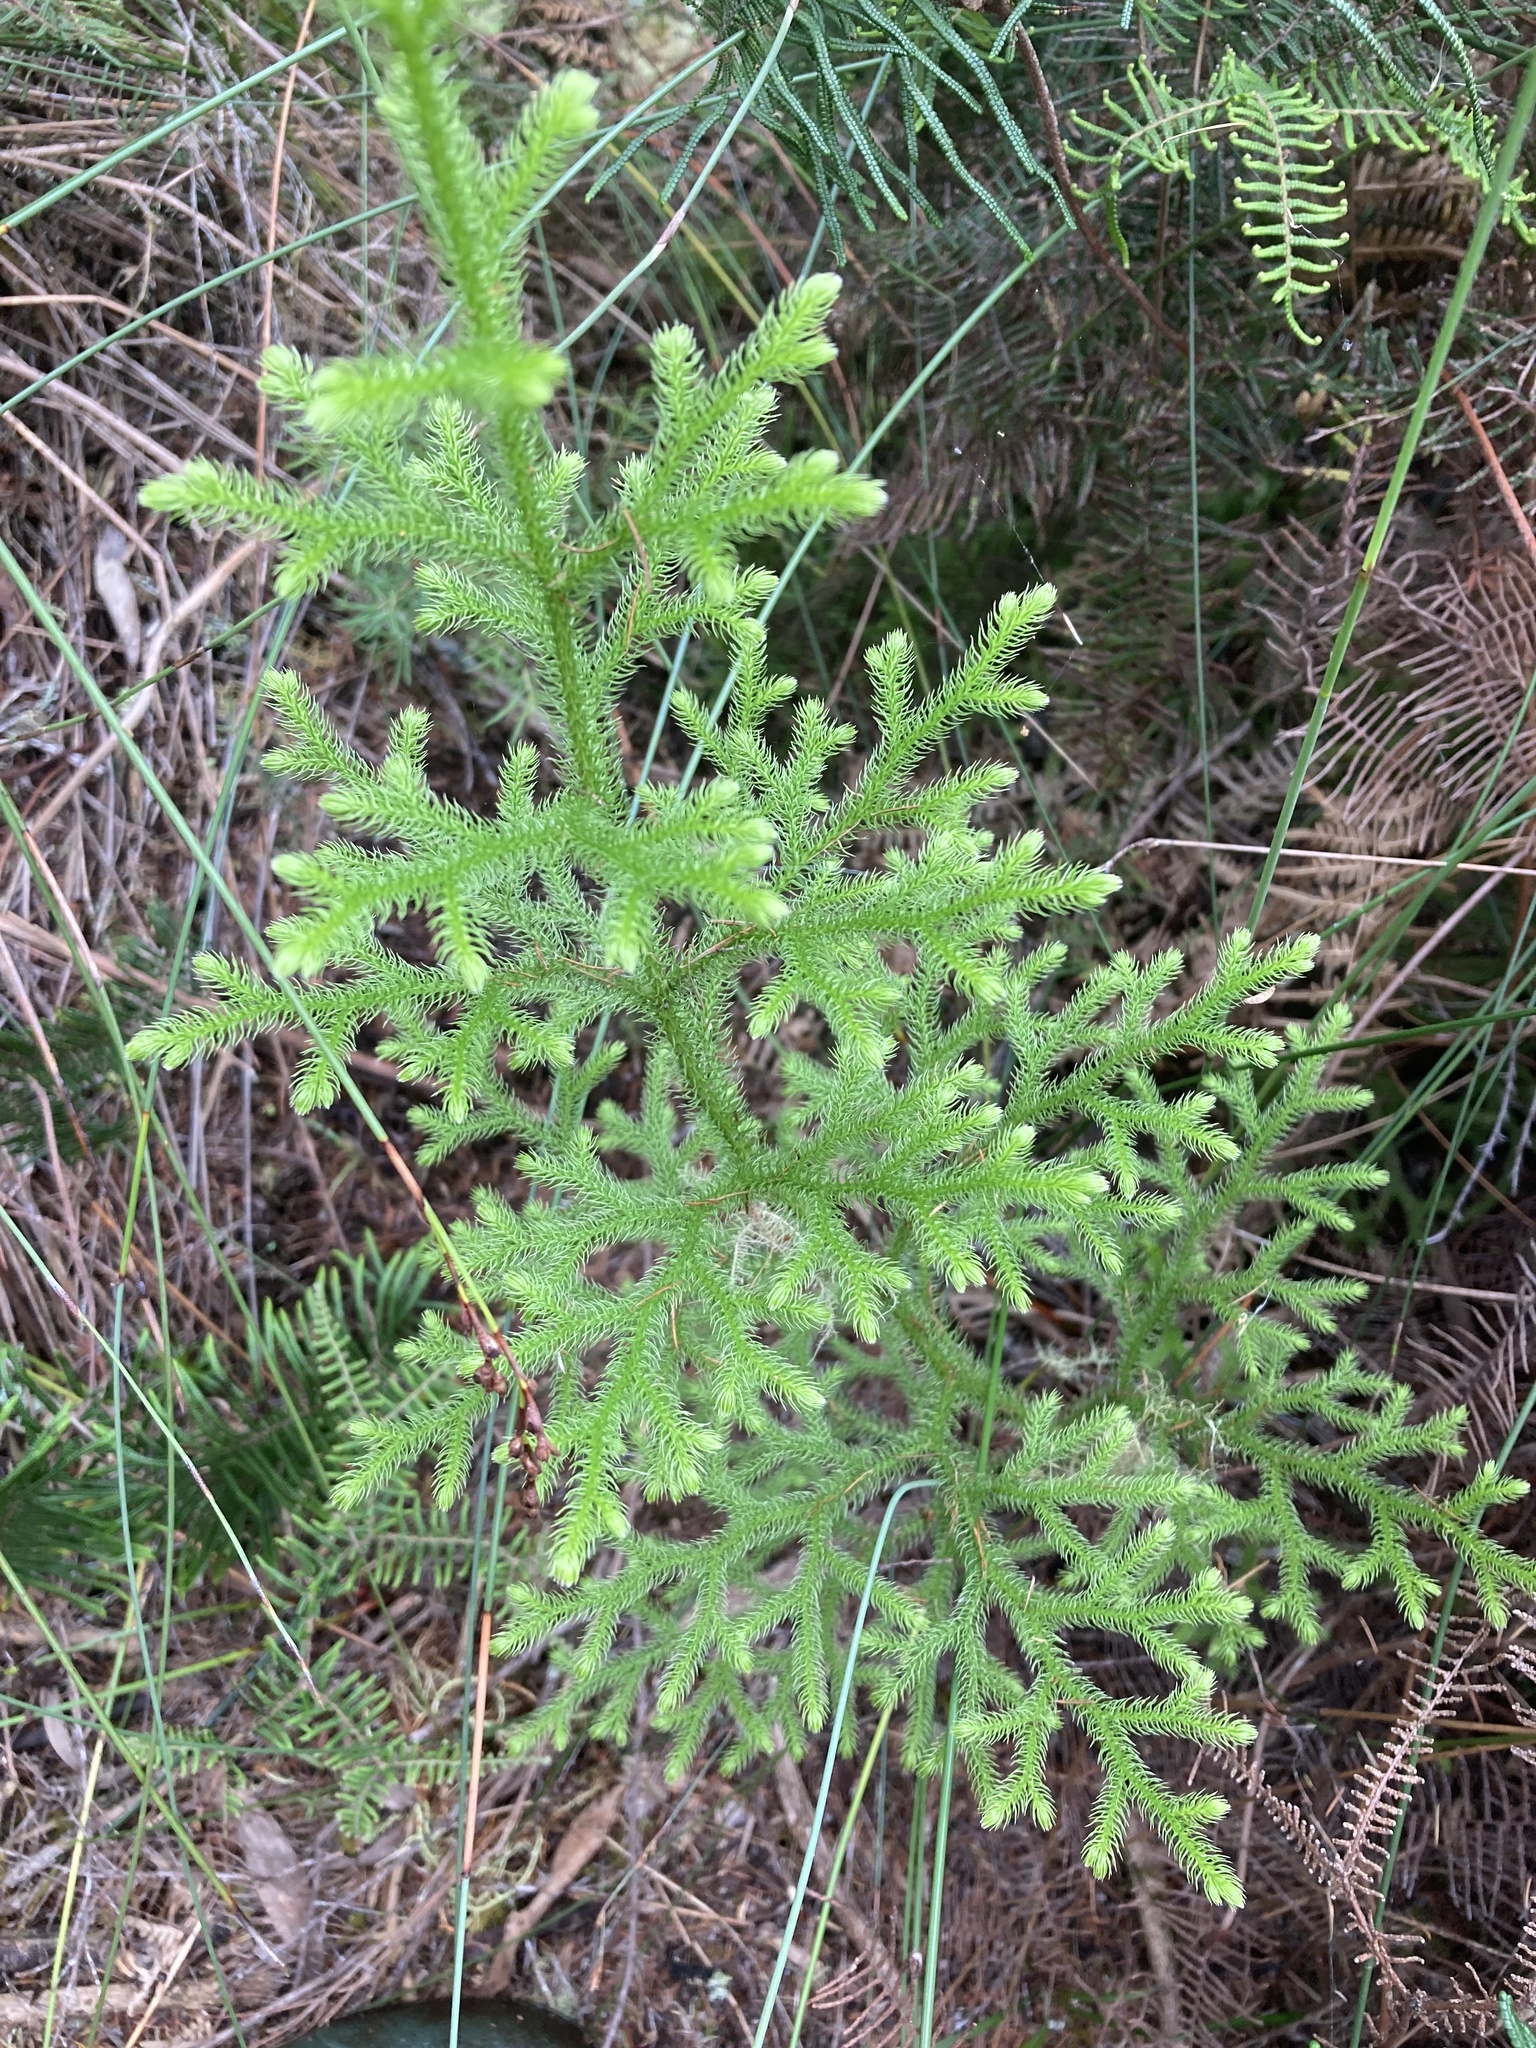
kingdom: Plantae
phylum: Tracheophyta
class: Lycopodiopsida
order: Lycopodiales
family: Lycopodiaceae
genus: Palhinhaea
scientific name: Palhinhaea cernua
